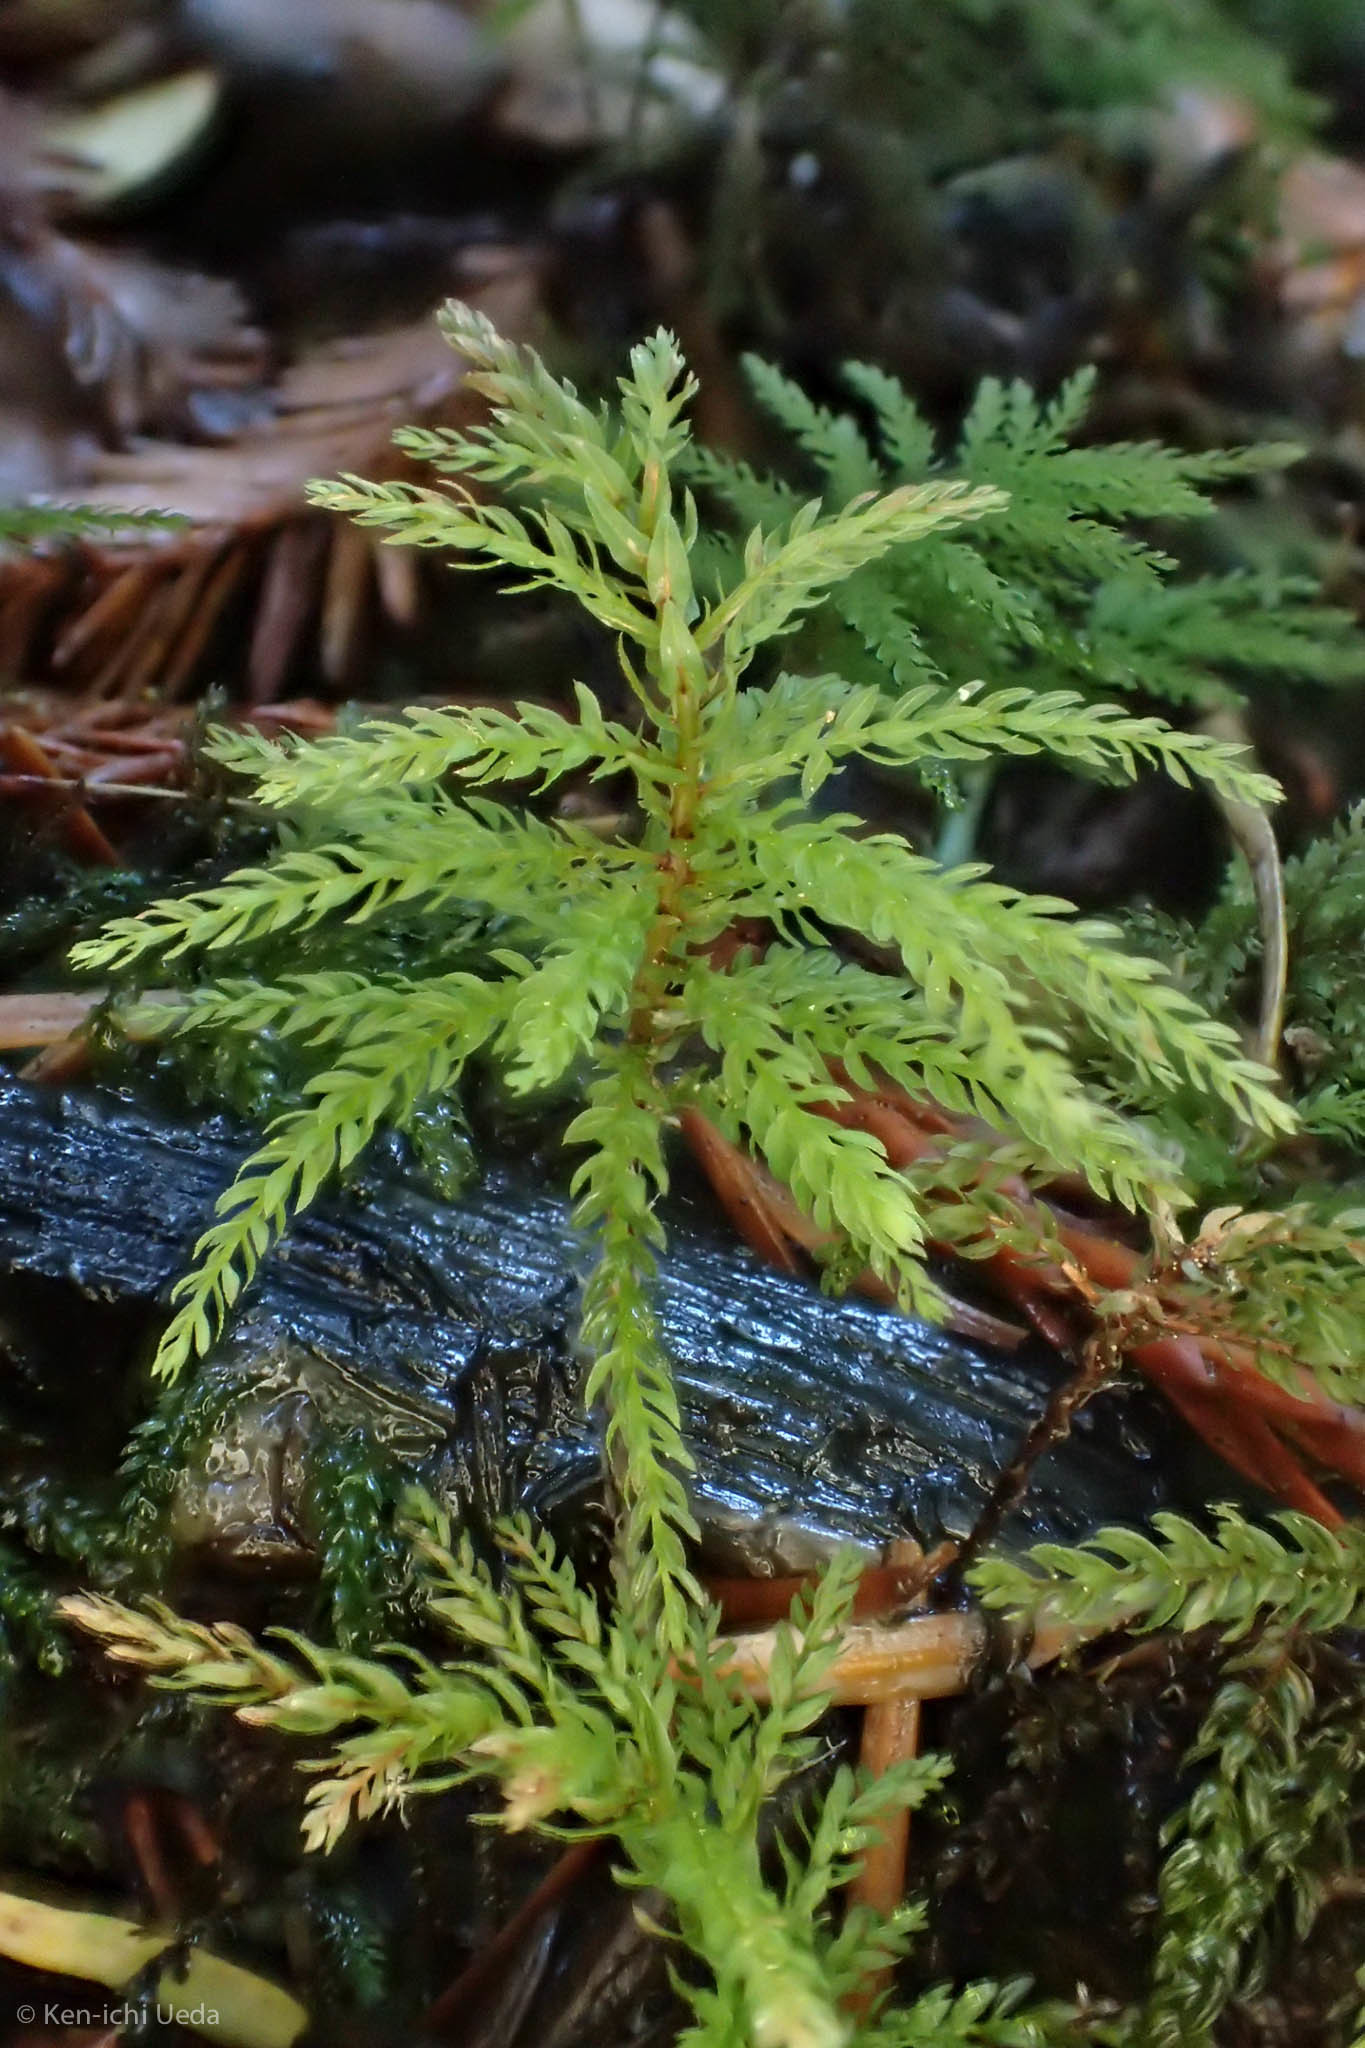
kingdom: Plantae
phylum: Bryophyta
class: Bryopsida
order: Bryales
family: Mniaceae
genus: Leucolepis
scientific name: Leucolepis acanthoneura
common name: Leucolepis umbrella moss
